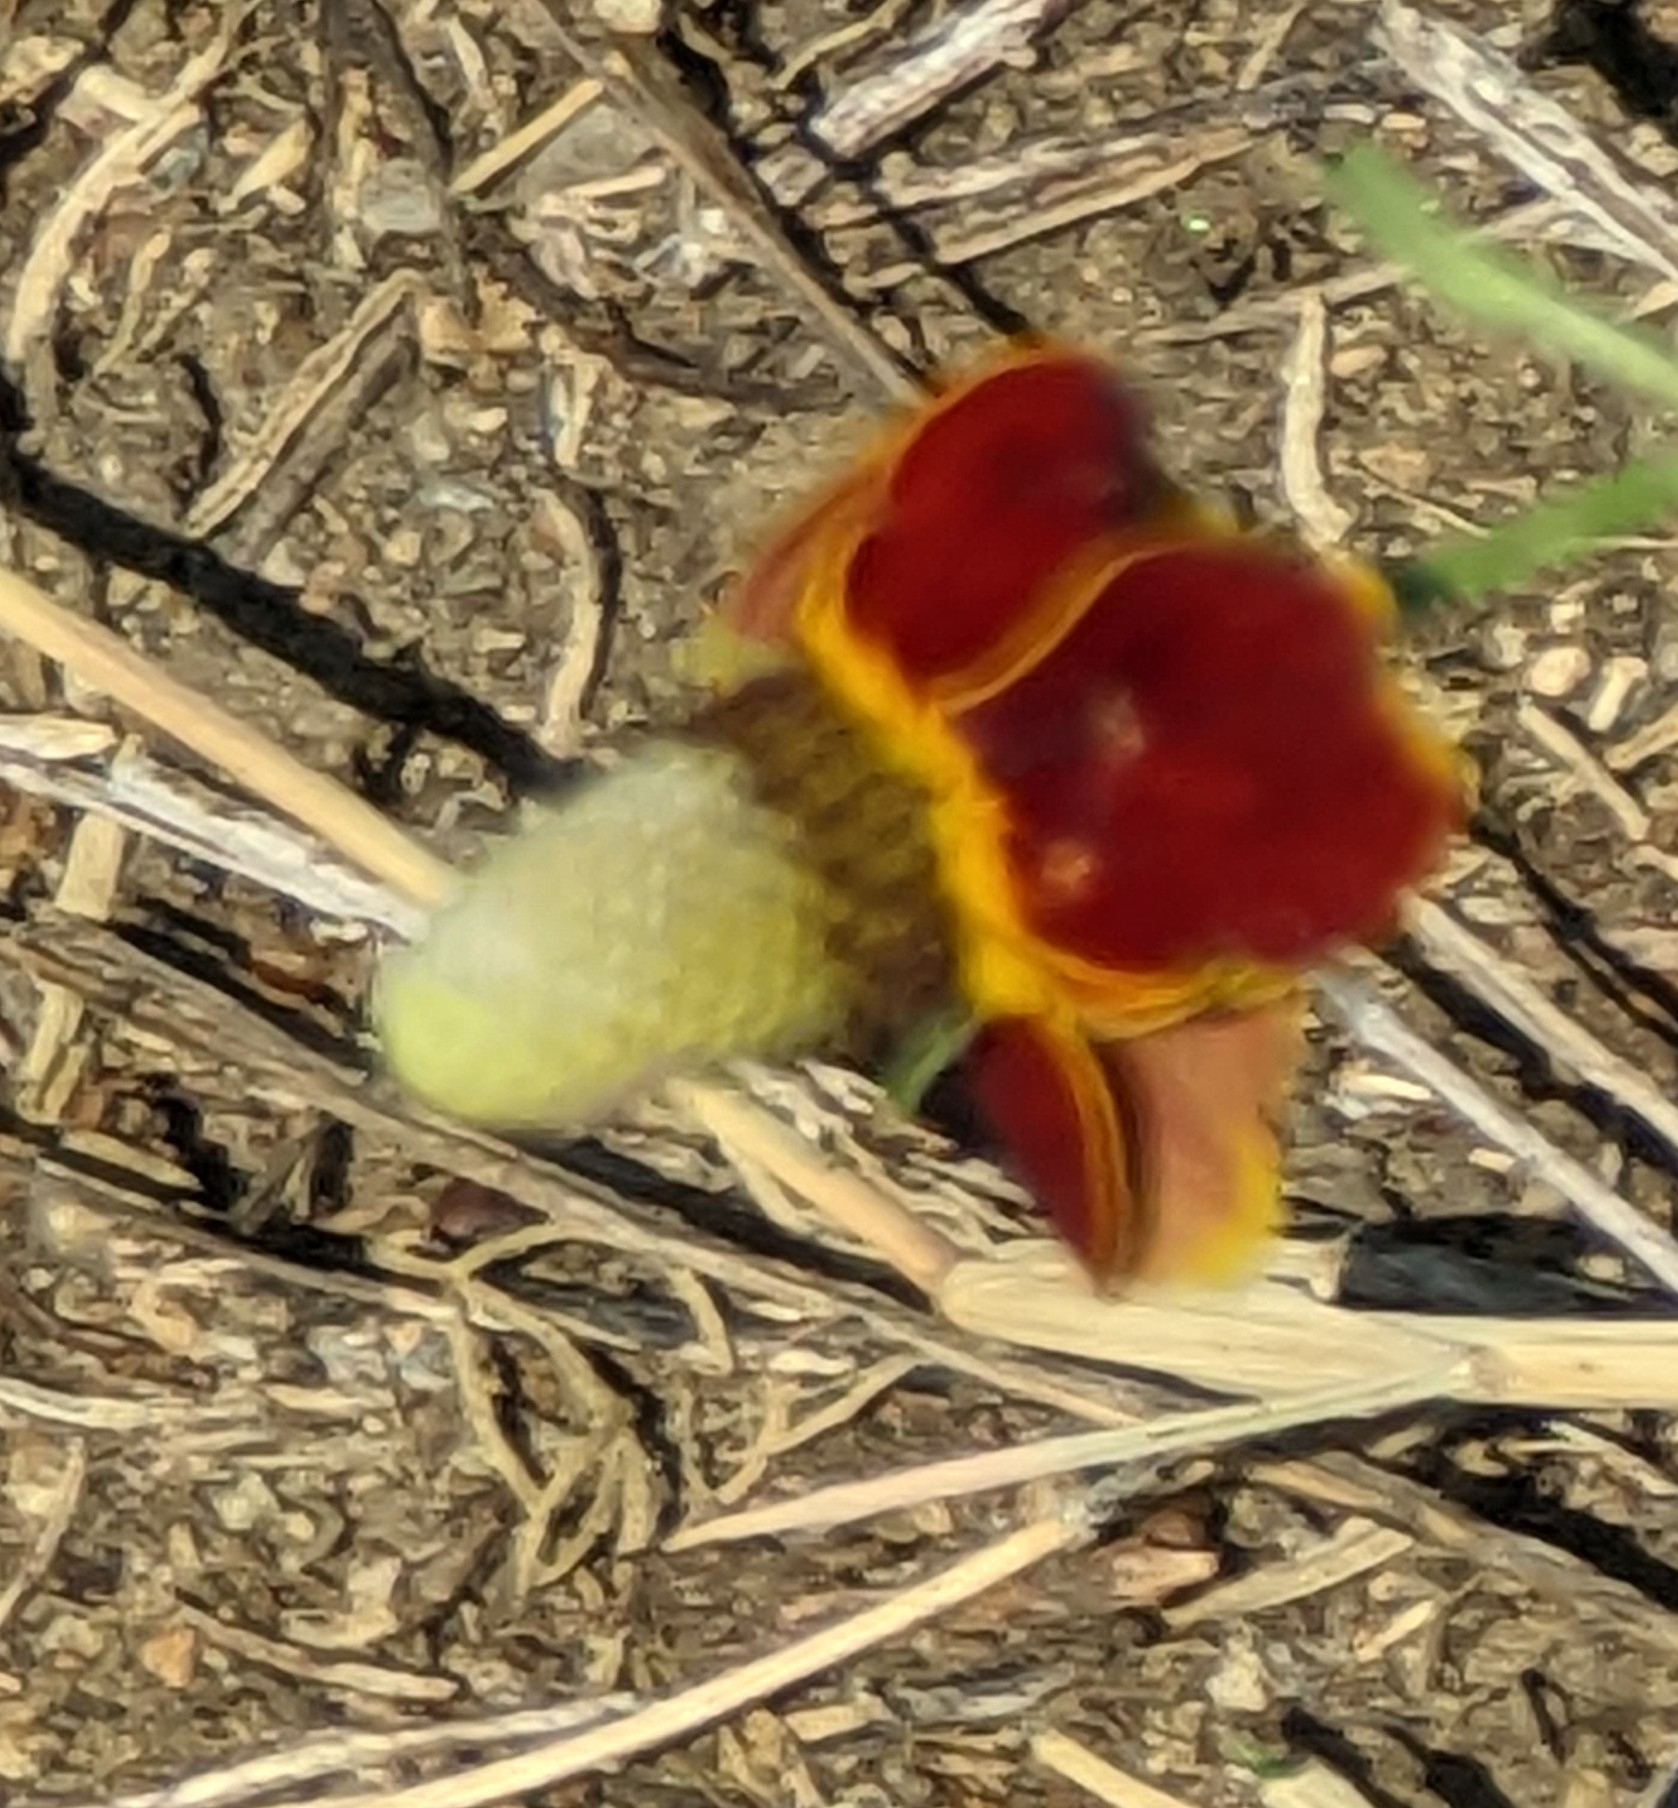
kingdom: Plantae
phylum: Tracheophyta
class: Magnoliopsida
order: Asterales
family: Asteraceae
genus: Ratibida
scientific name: Ratibida columnifera
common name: Prairie coneflower
